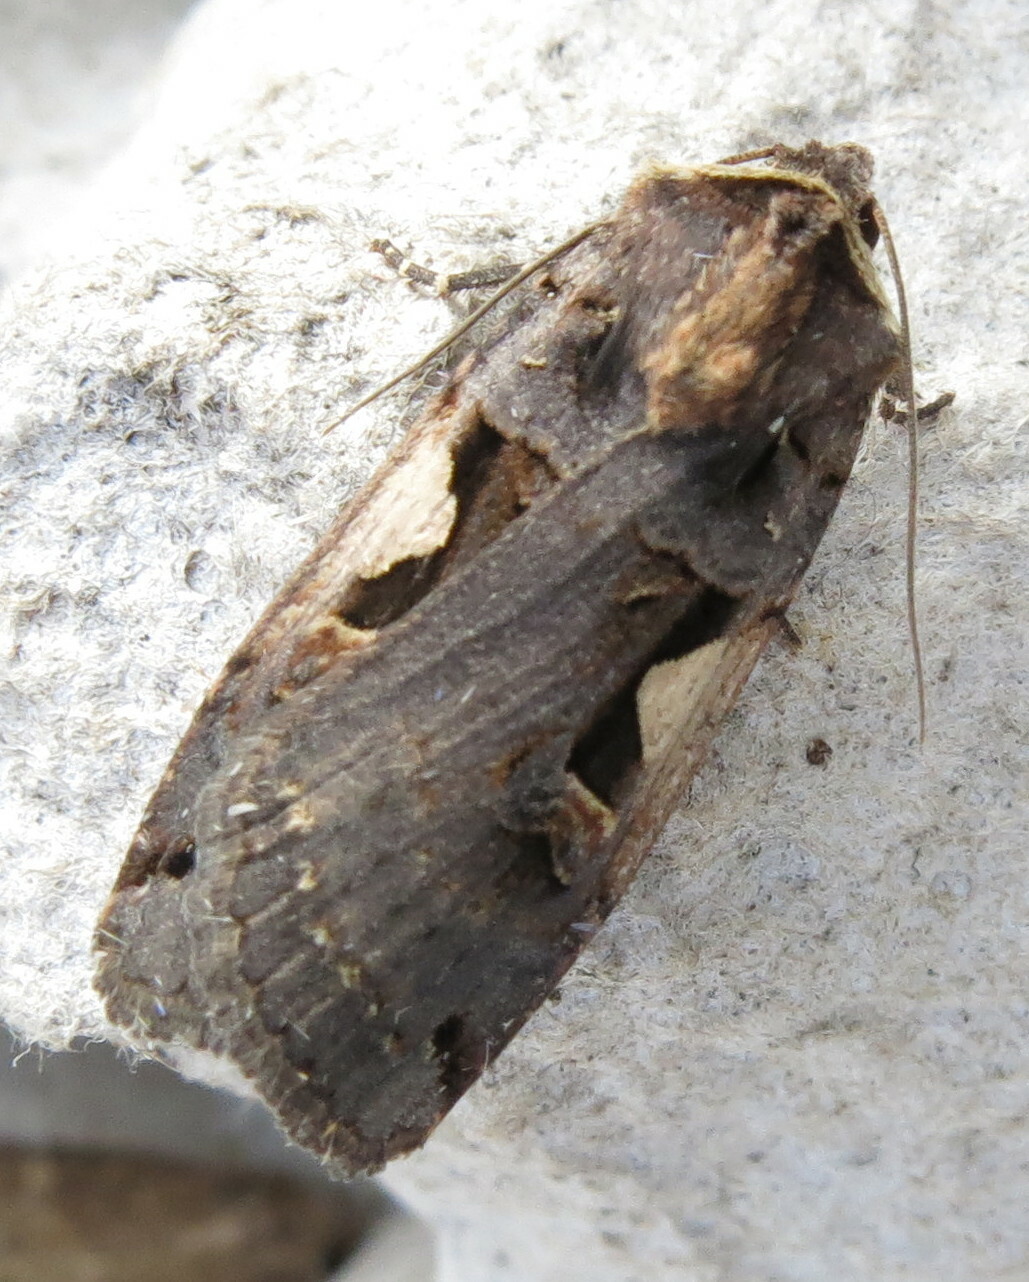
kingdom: Animalia
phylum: Arthropoda
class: Insecta
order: Lepidoptera
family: Noctuidae
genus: Xestia
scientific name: Xestia c-nigrum
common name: Setaceous hebrew character
